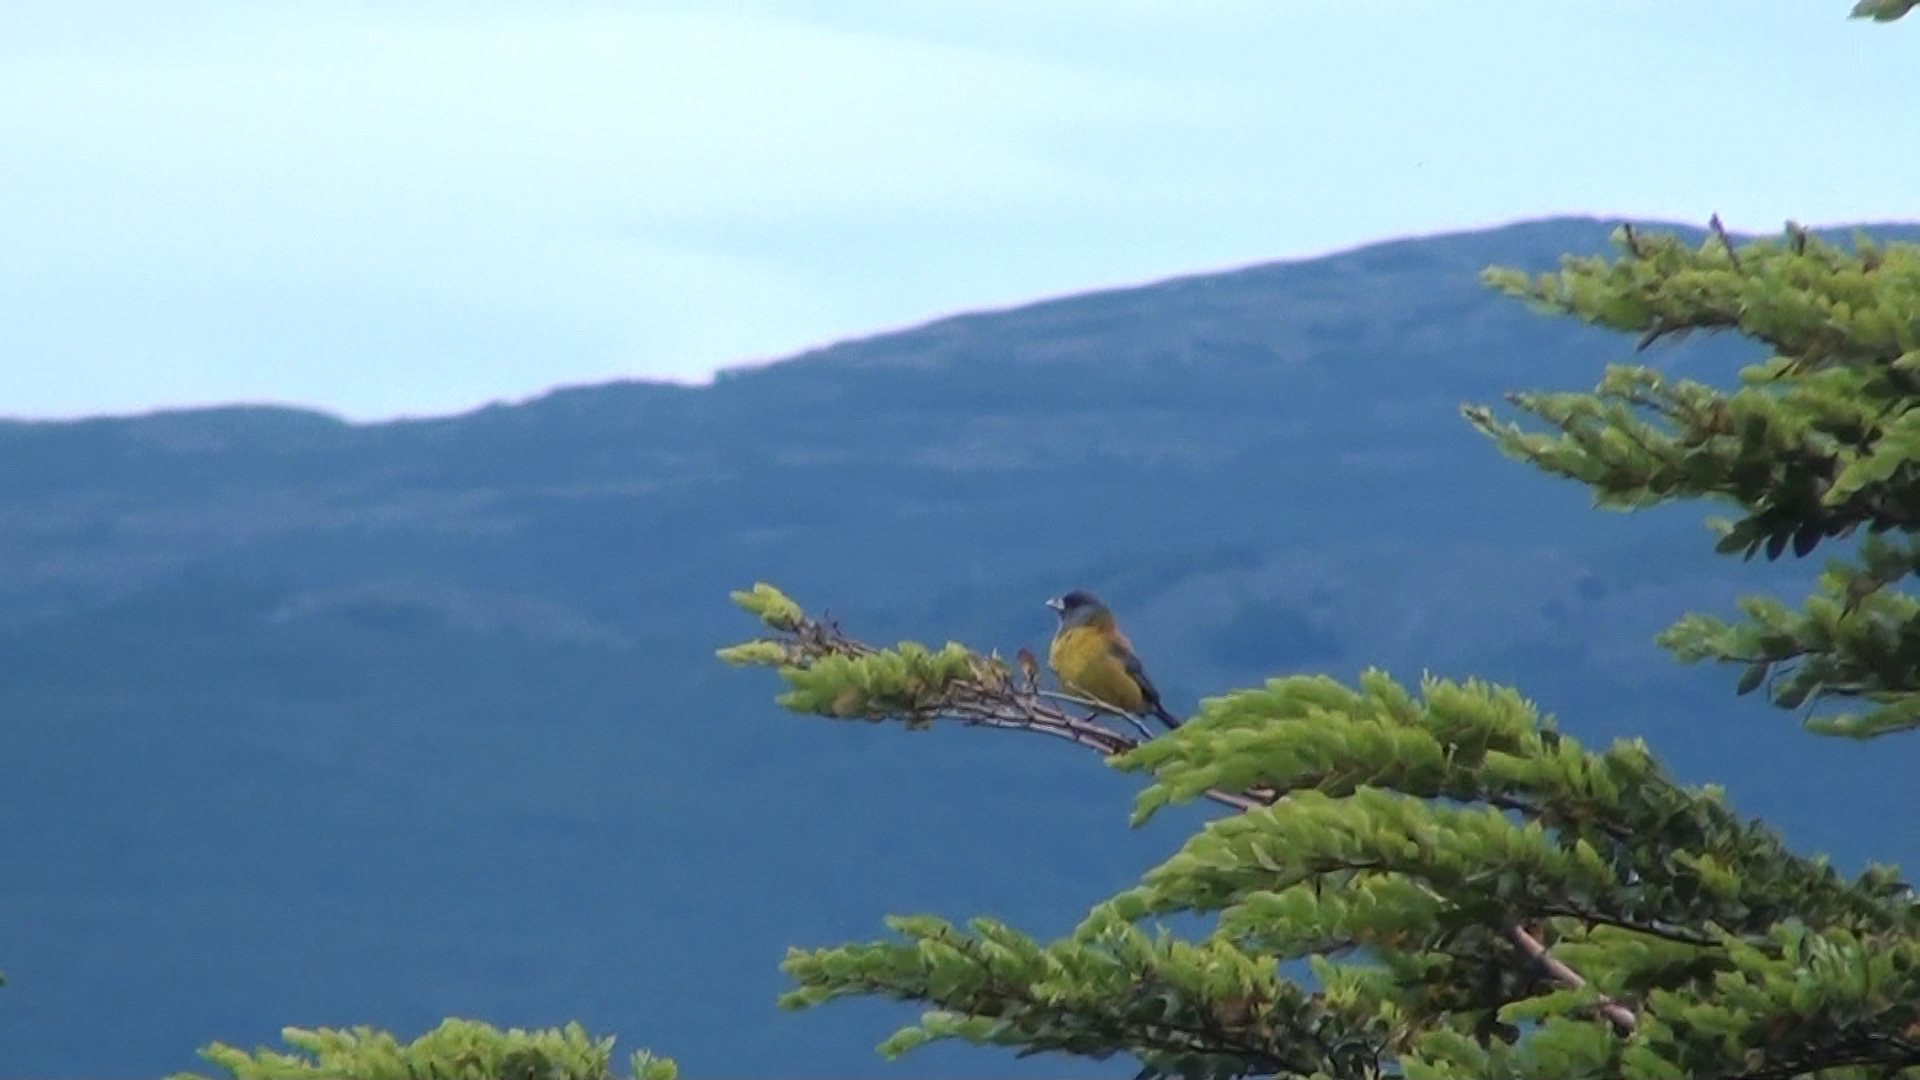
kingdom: Animalia
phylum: Chordata
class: Aves
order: Passeriformes
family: Thraupidae
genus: Phrygilus
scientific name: Phrygilus patagonicus
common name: Patagonian sierra finch
